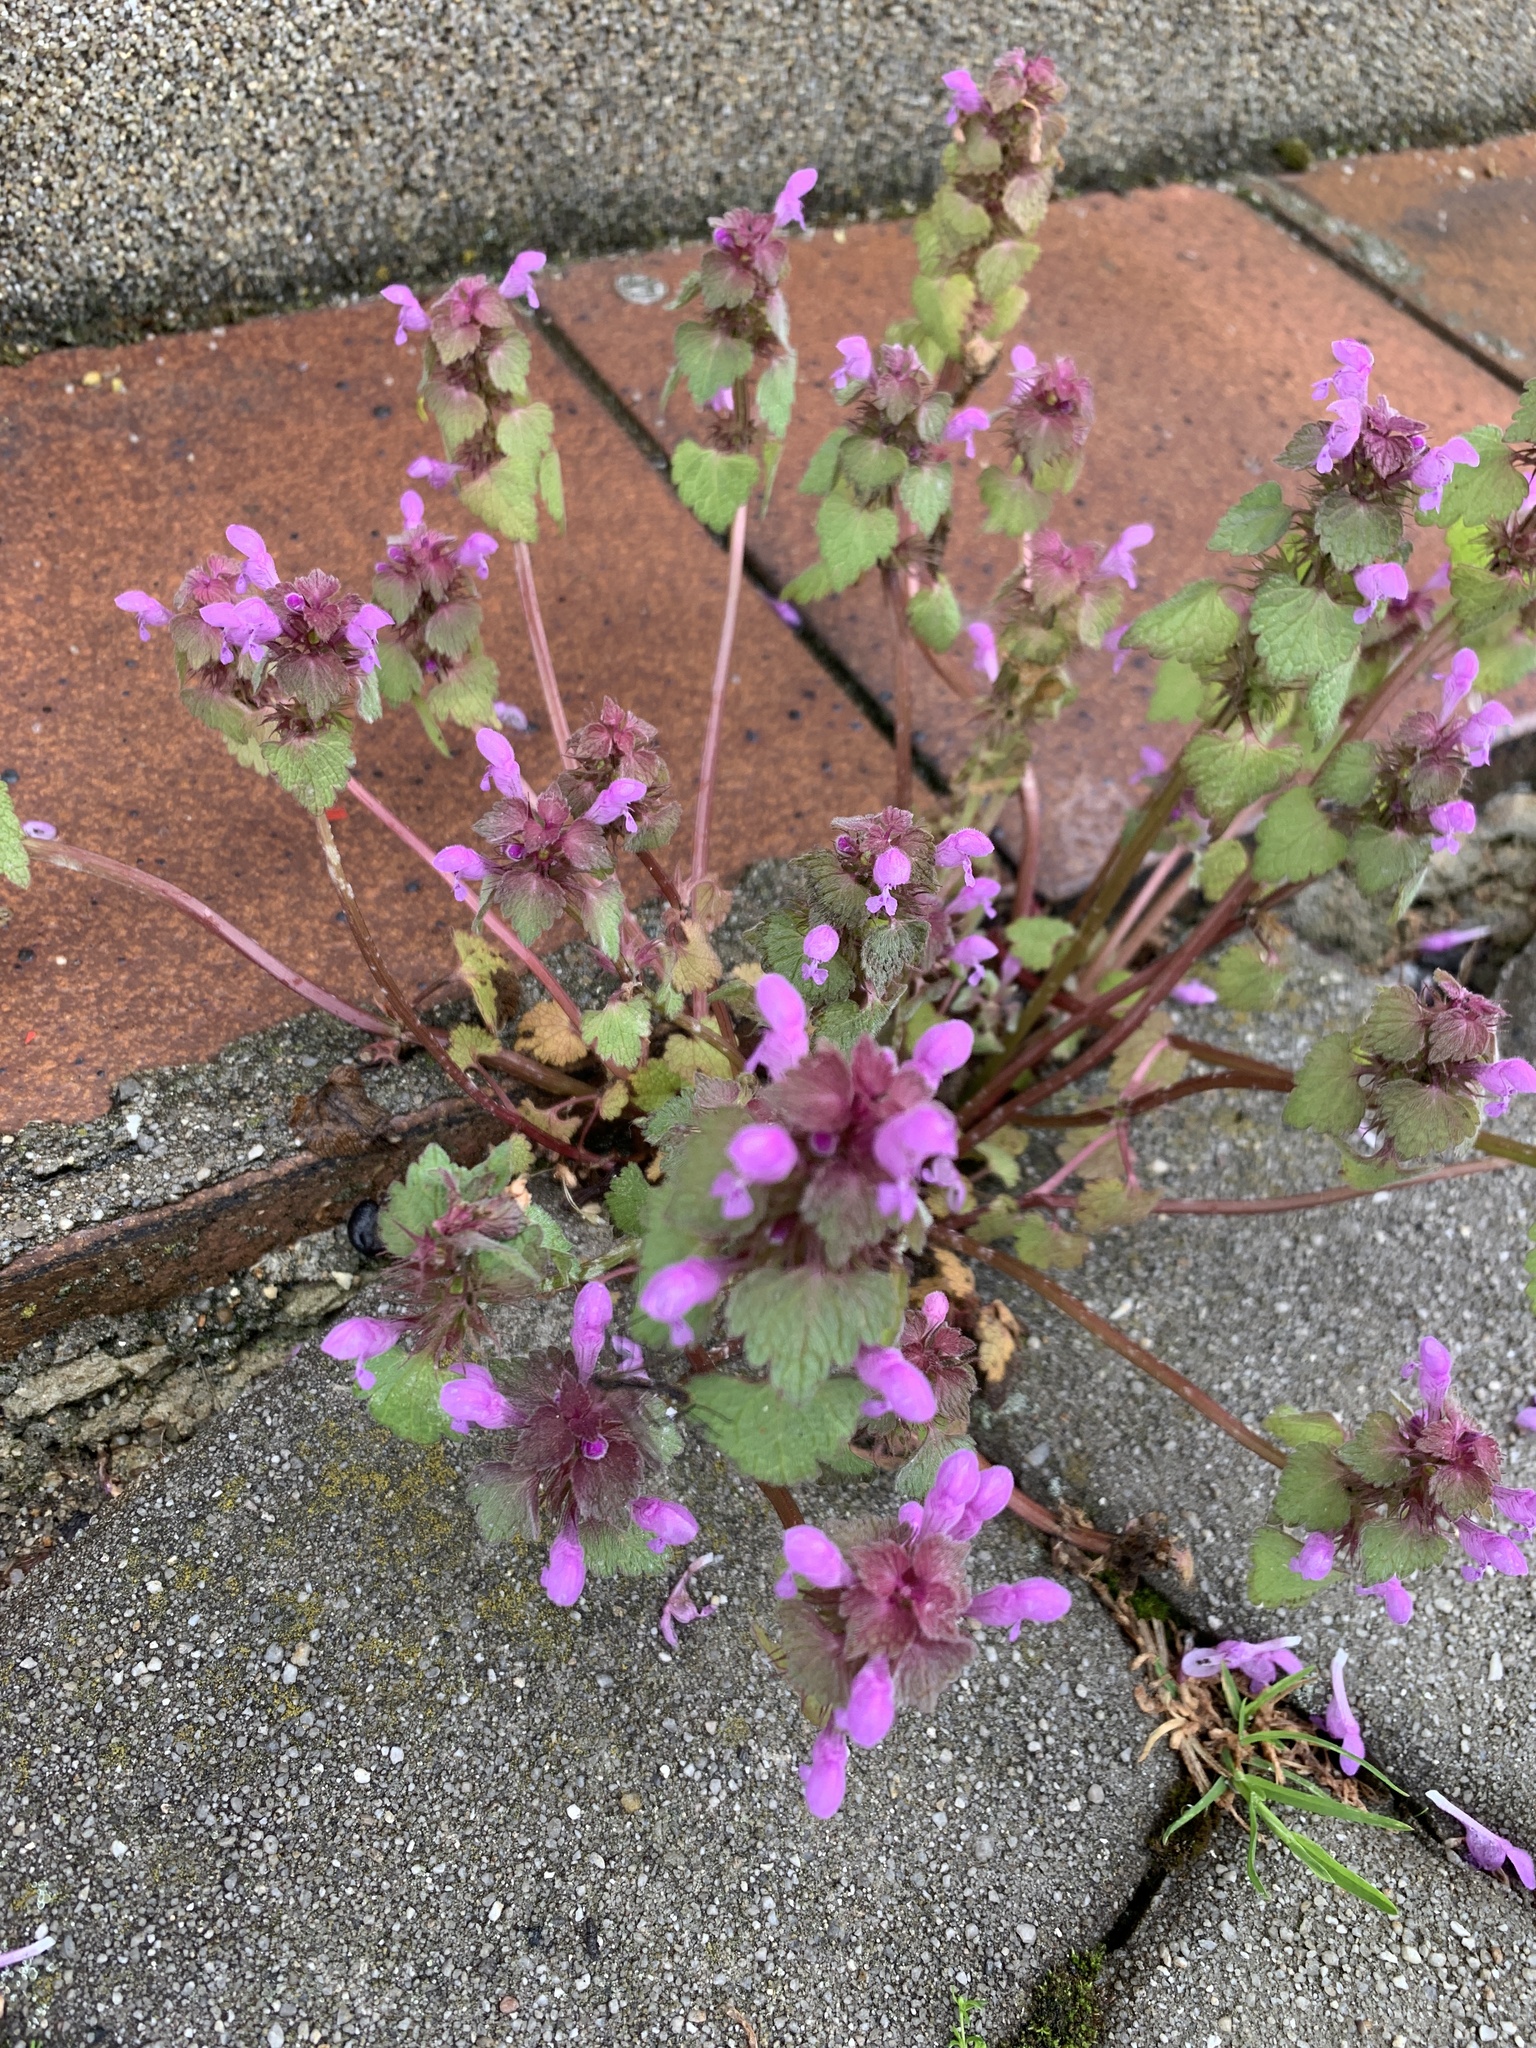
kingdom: Plantae
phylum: Tracheophyta
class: Magnoliopsida
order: Lamiales
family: Lamiaceae
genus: Lamium
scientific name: Lamium purpureum
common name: Red dead-nettle
